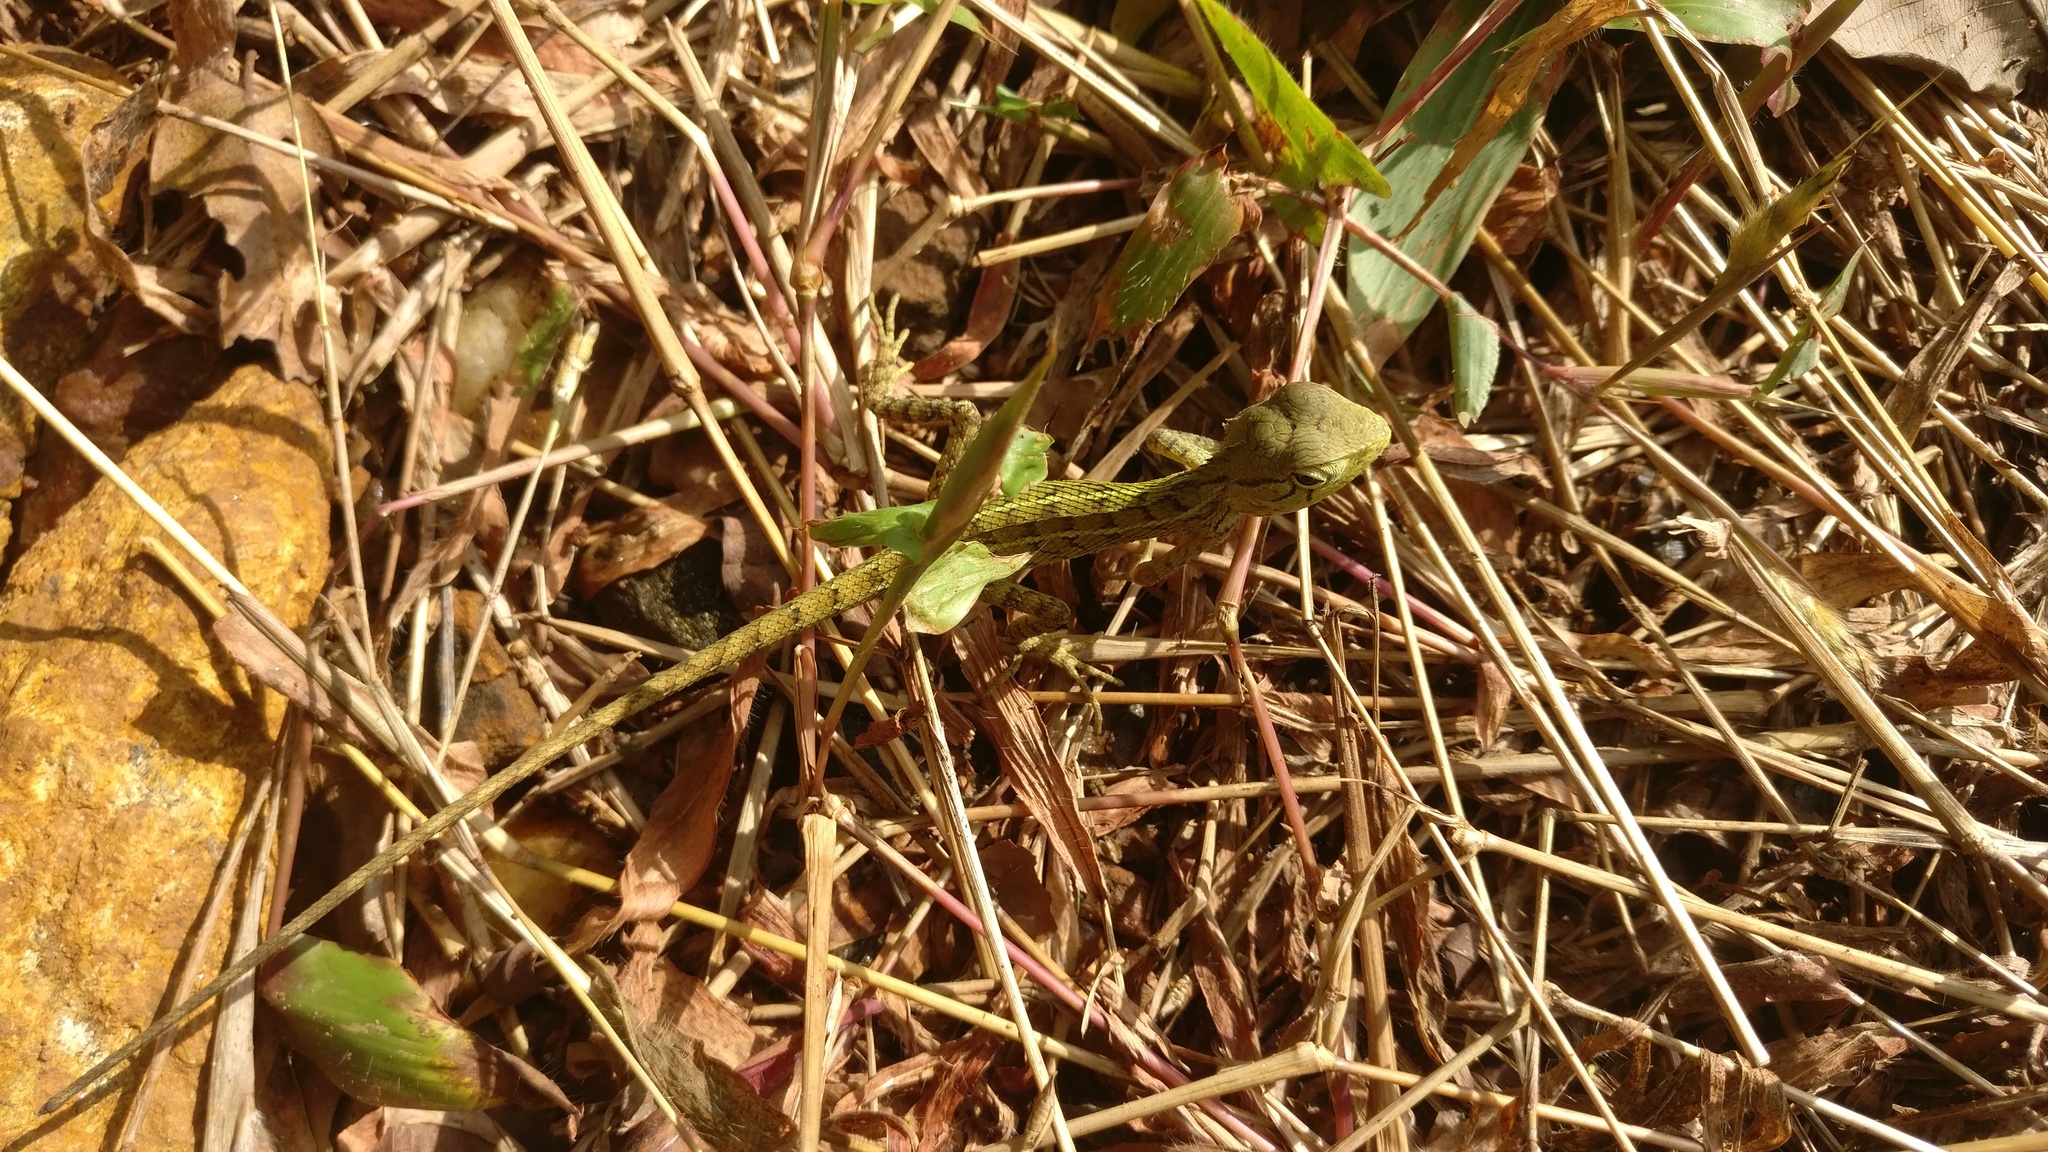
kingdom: Animalia
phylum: Chordata
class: Squamata
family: Agamidae
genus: Calotes
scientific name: Calotes versicolor
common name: Oriental garden lizard
